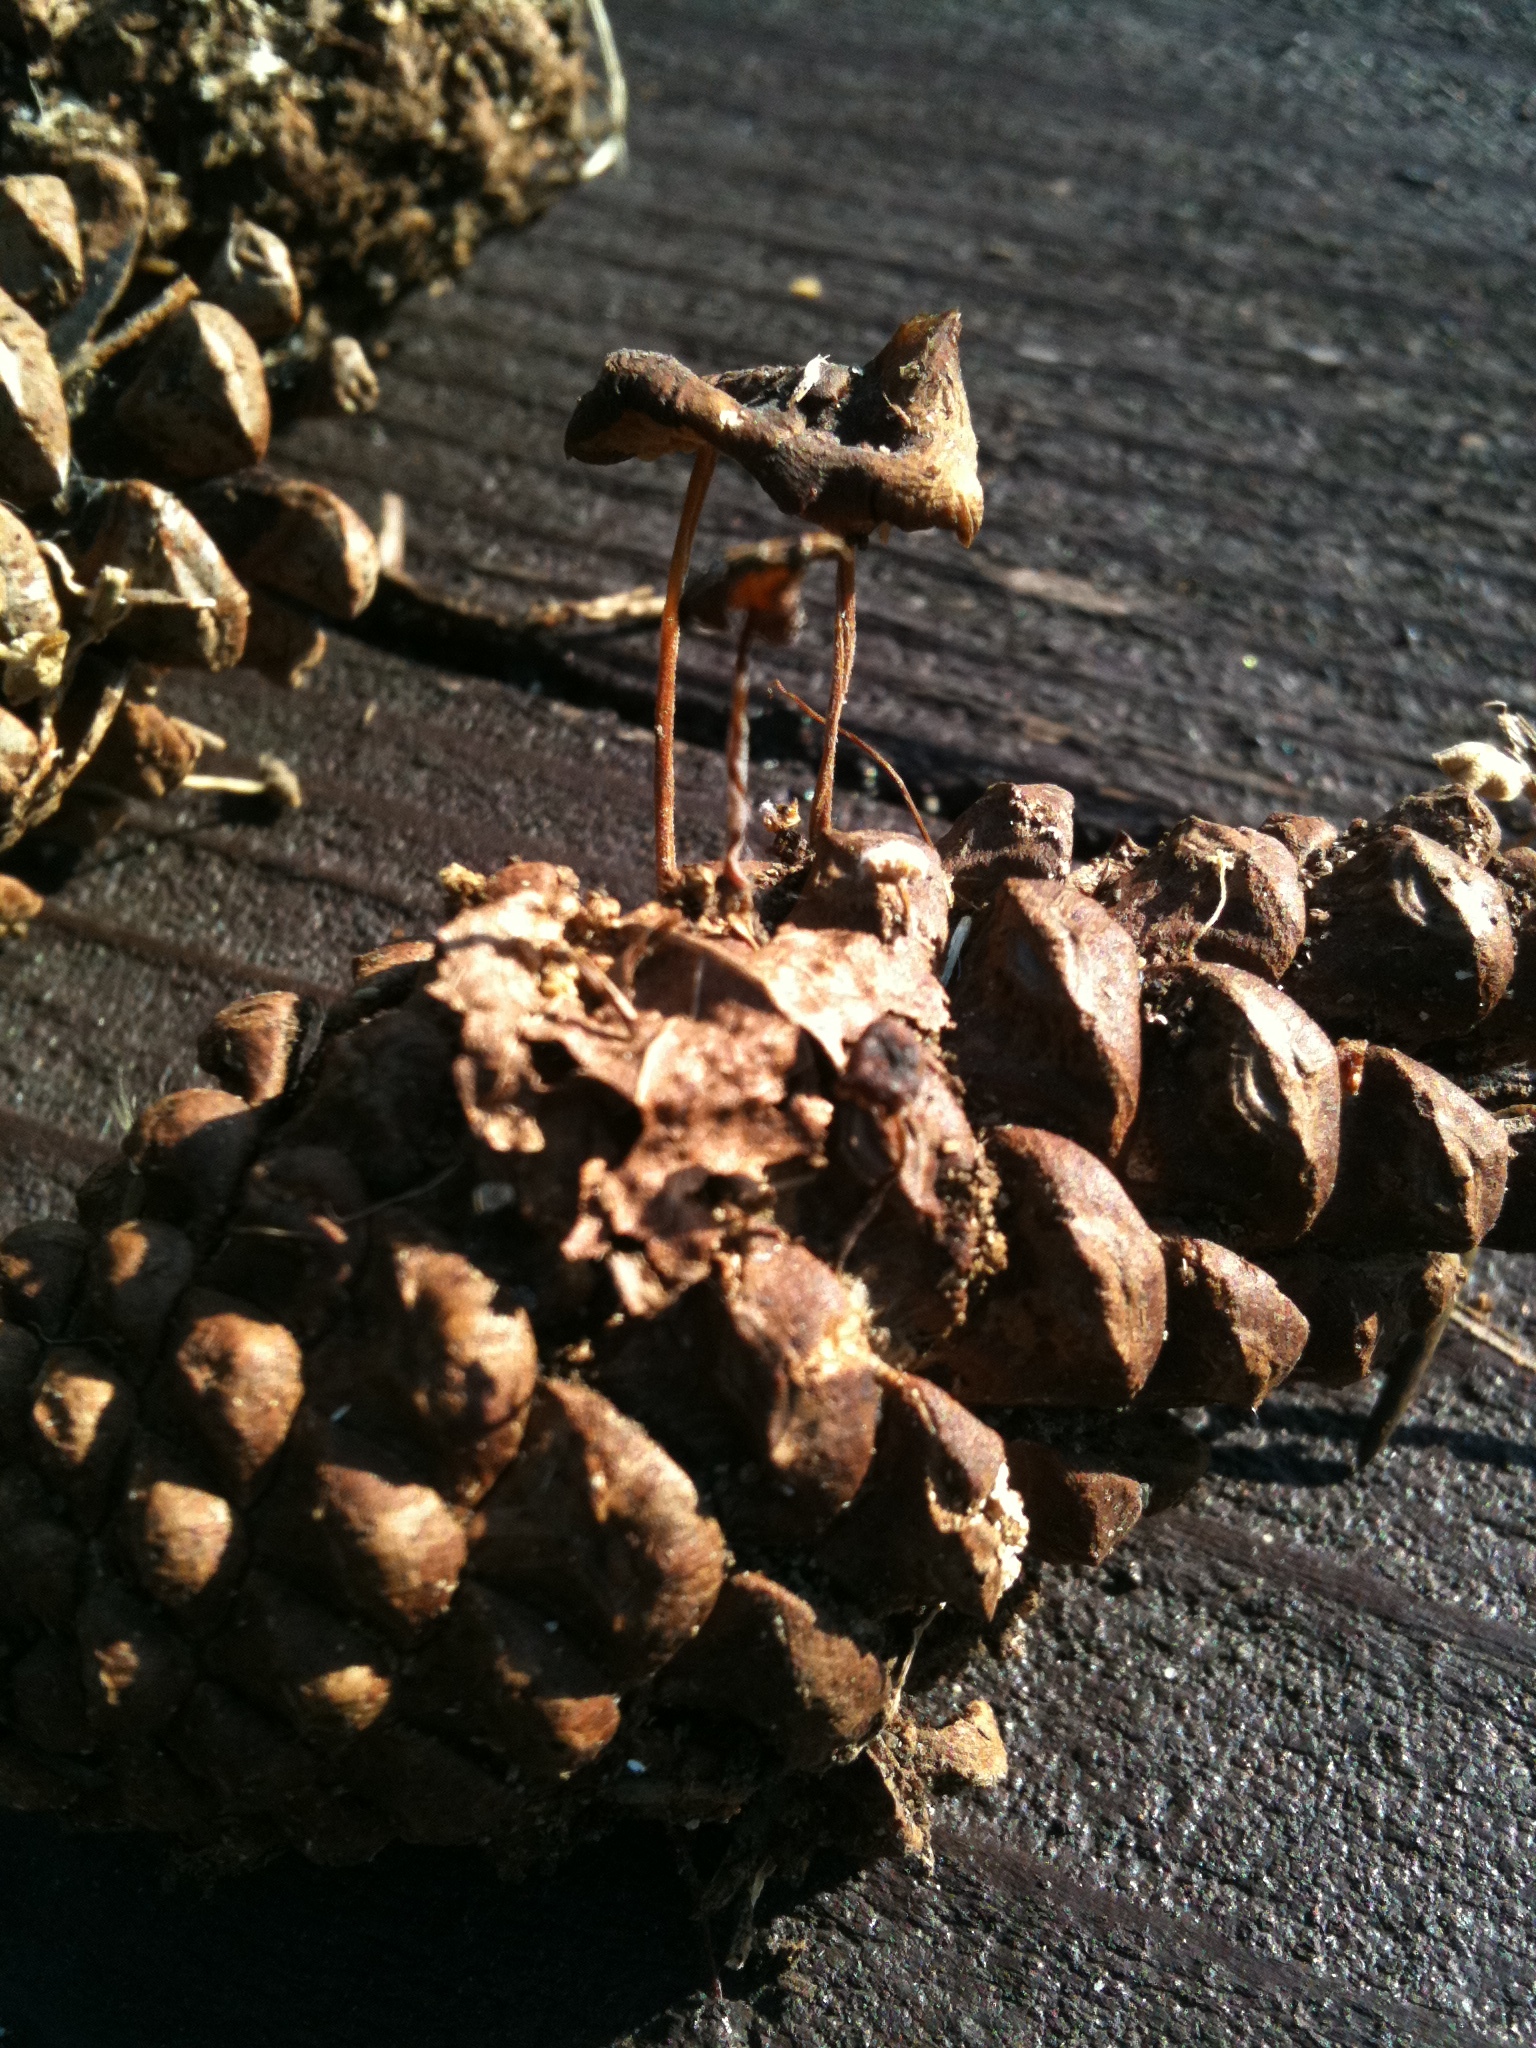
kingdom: Fungi
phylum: Basidiomycota
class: Agaricomycetes
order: Agaricales
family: Physalacriaceae
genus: Strobilurus
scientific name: Strobilurus stephanocystis
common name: Russian conecap
